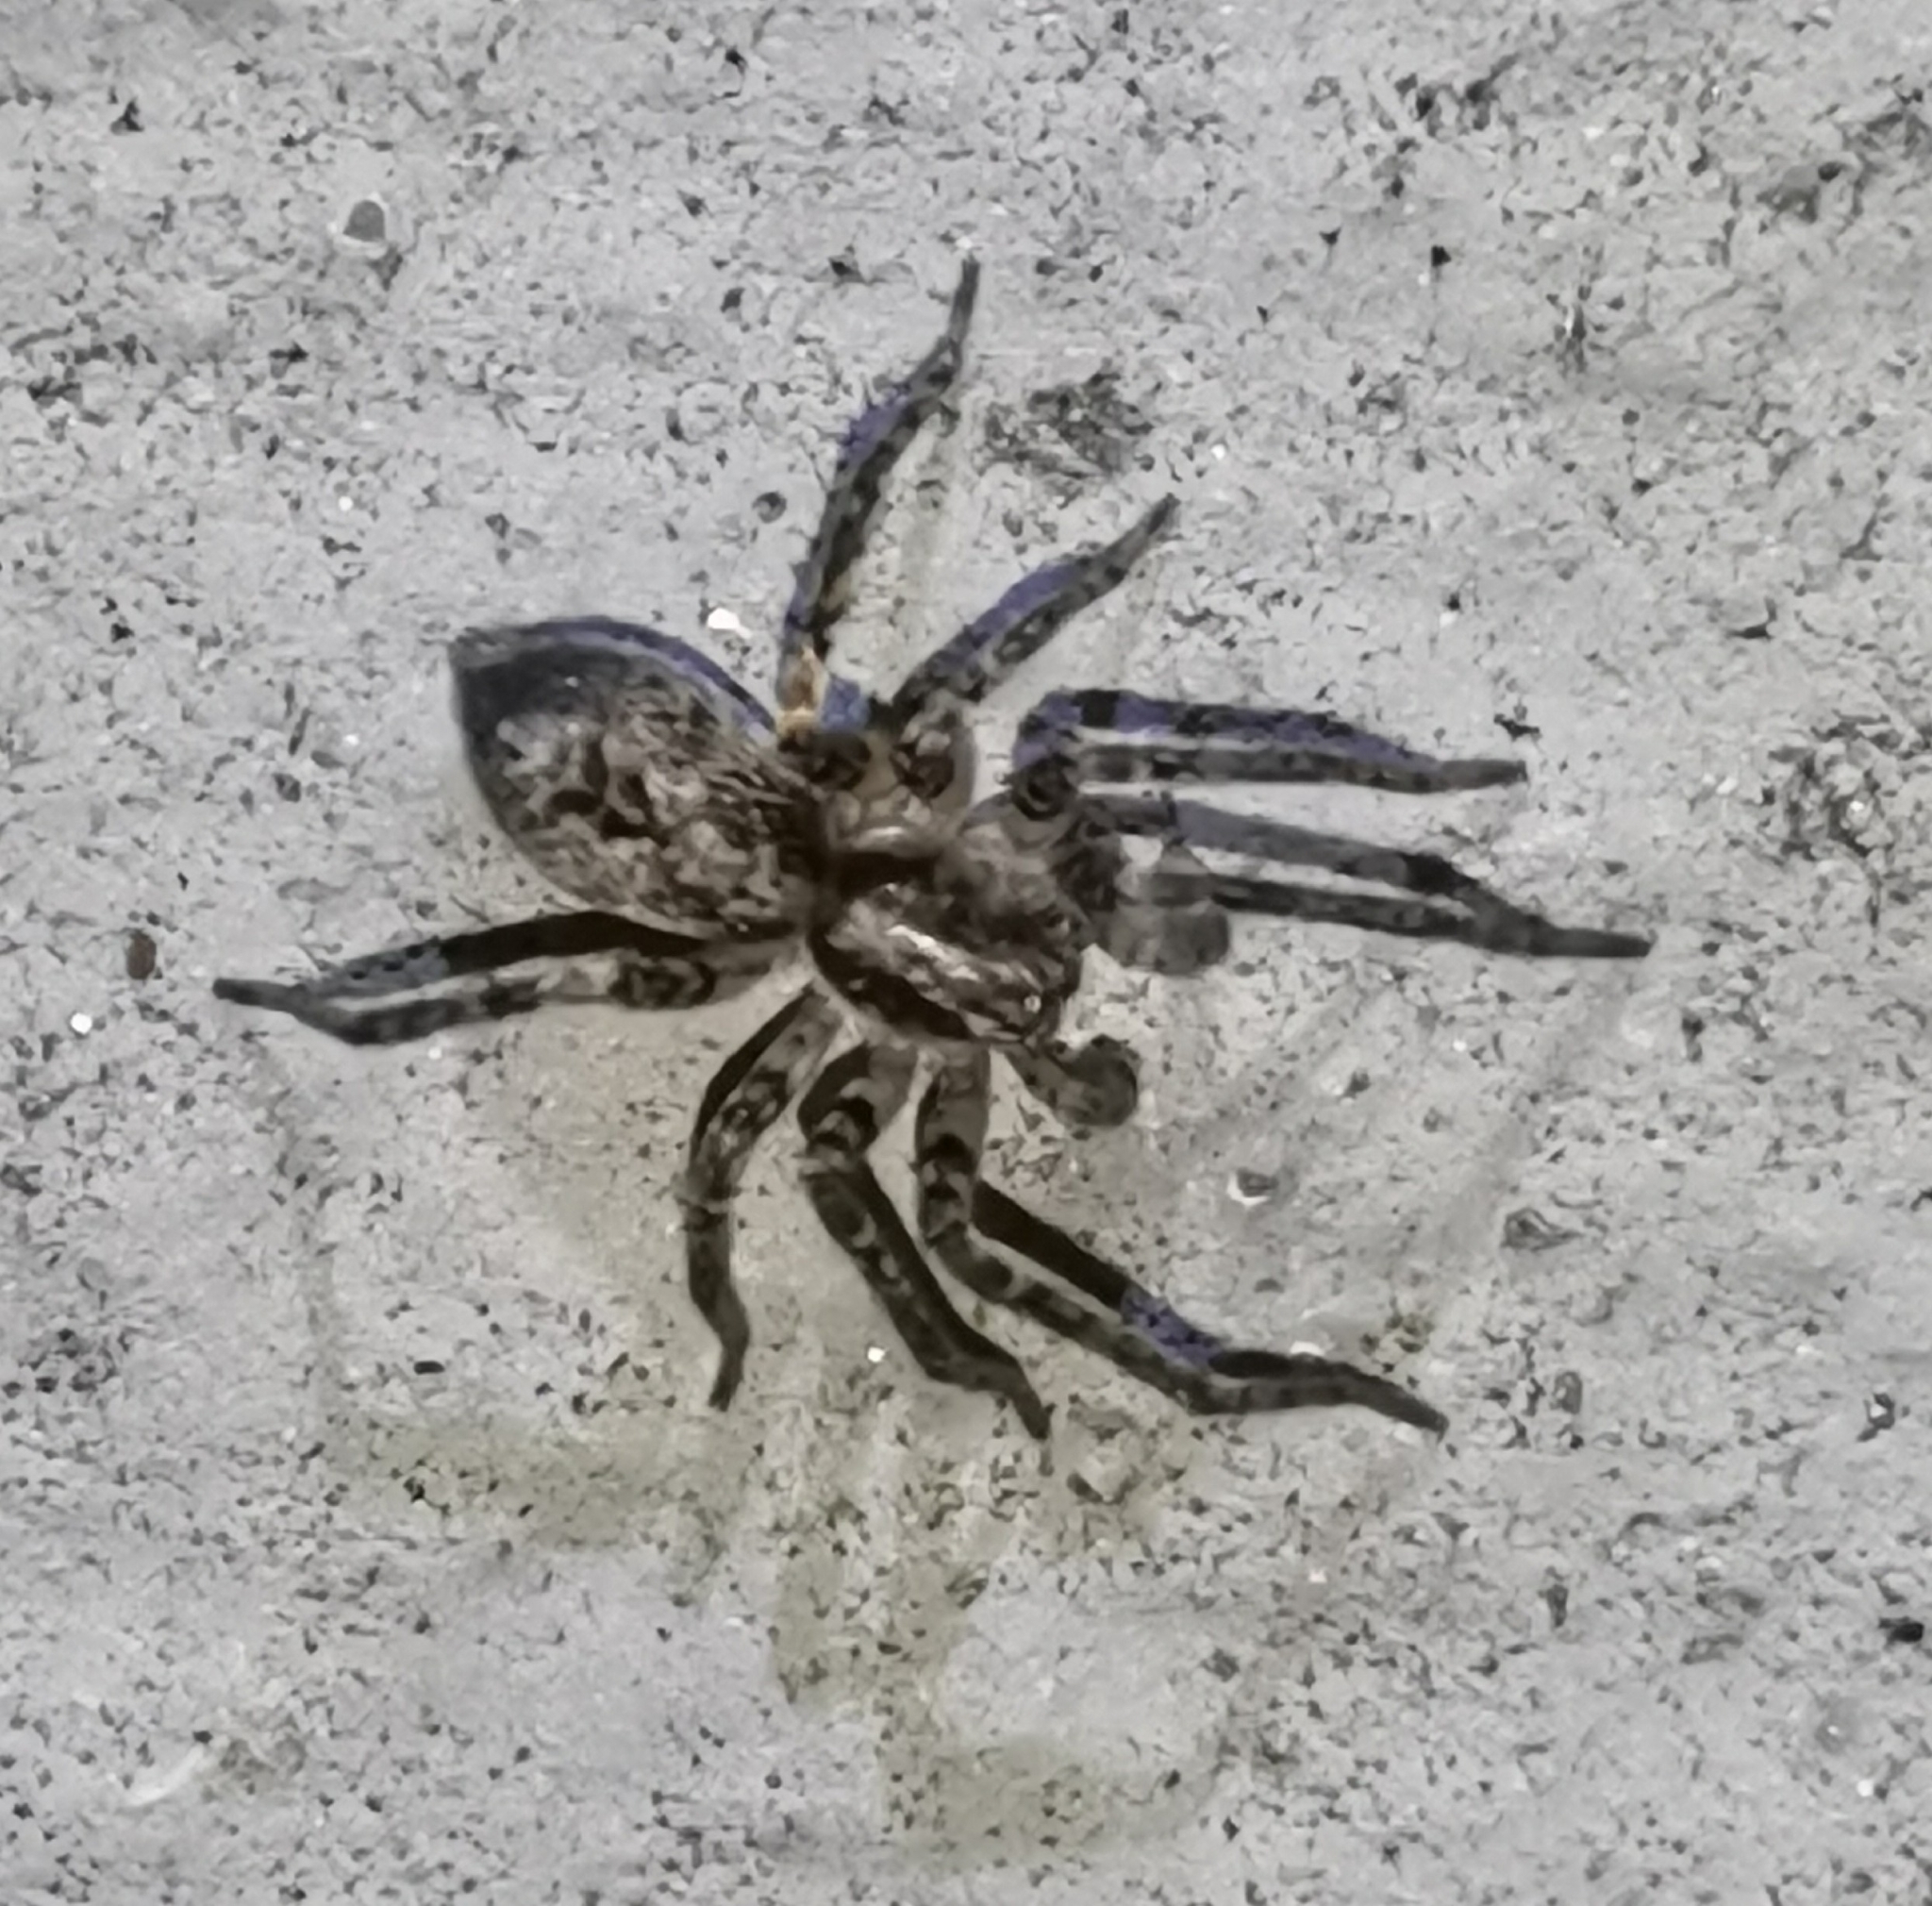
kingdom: Animalia
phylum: Arthropoda
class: Arachnida
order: Araneae
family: Anyphaenidae
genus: Anyphaena
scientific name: Anyphaena accentuata
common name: Buzzing spider
